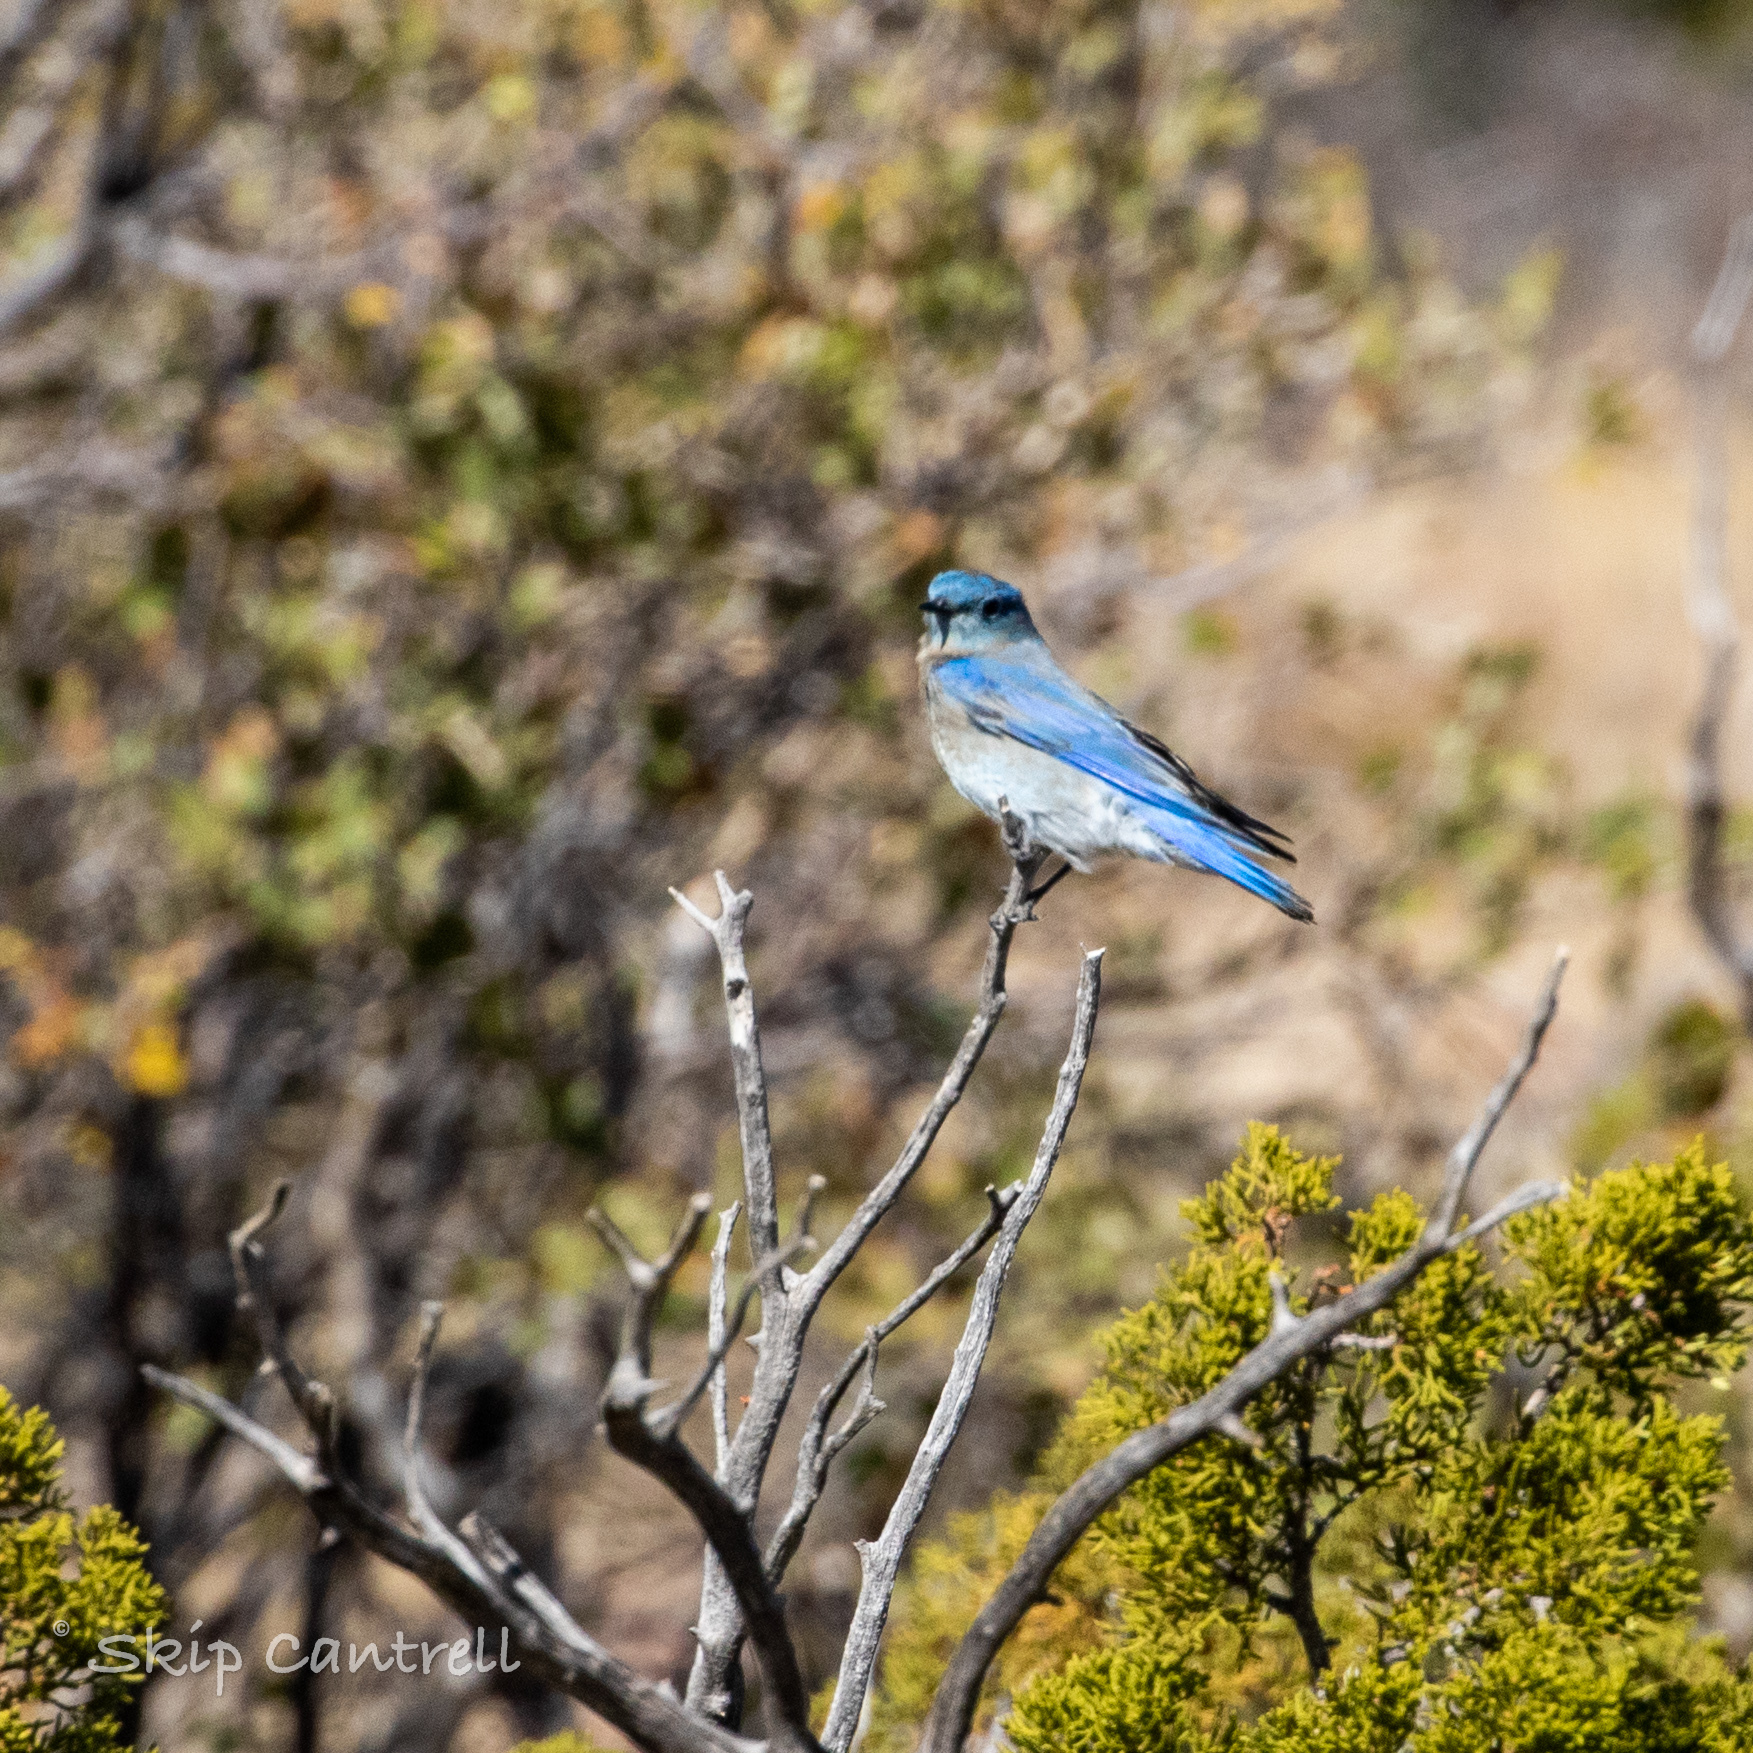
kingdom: Animalia
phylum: Chordata
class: Aves
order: Passeriformes
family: Turdidae
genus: Sialia
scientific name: Sialia currucoides
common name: Mountain bluebird
